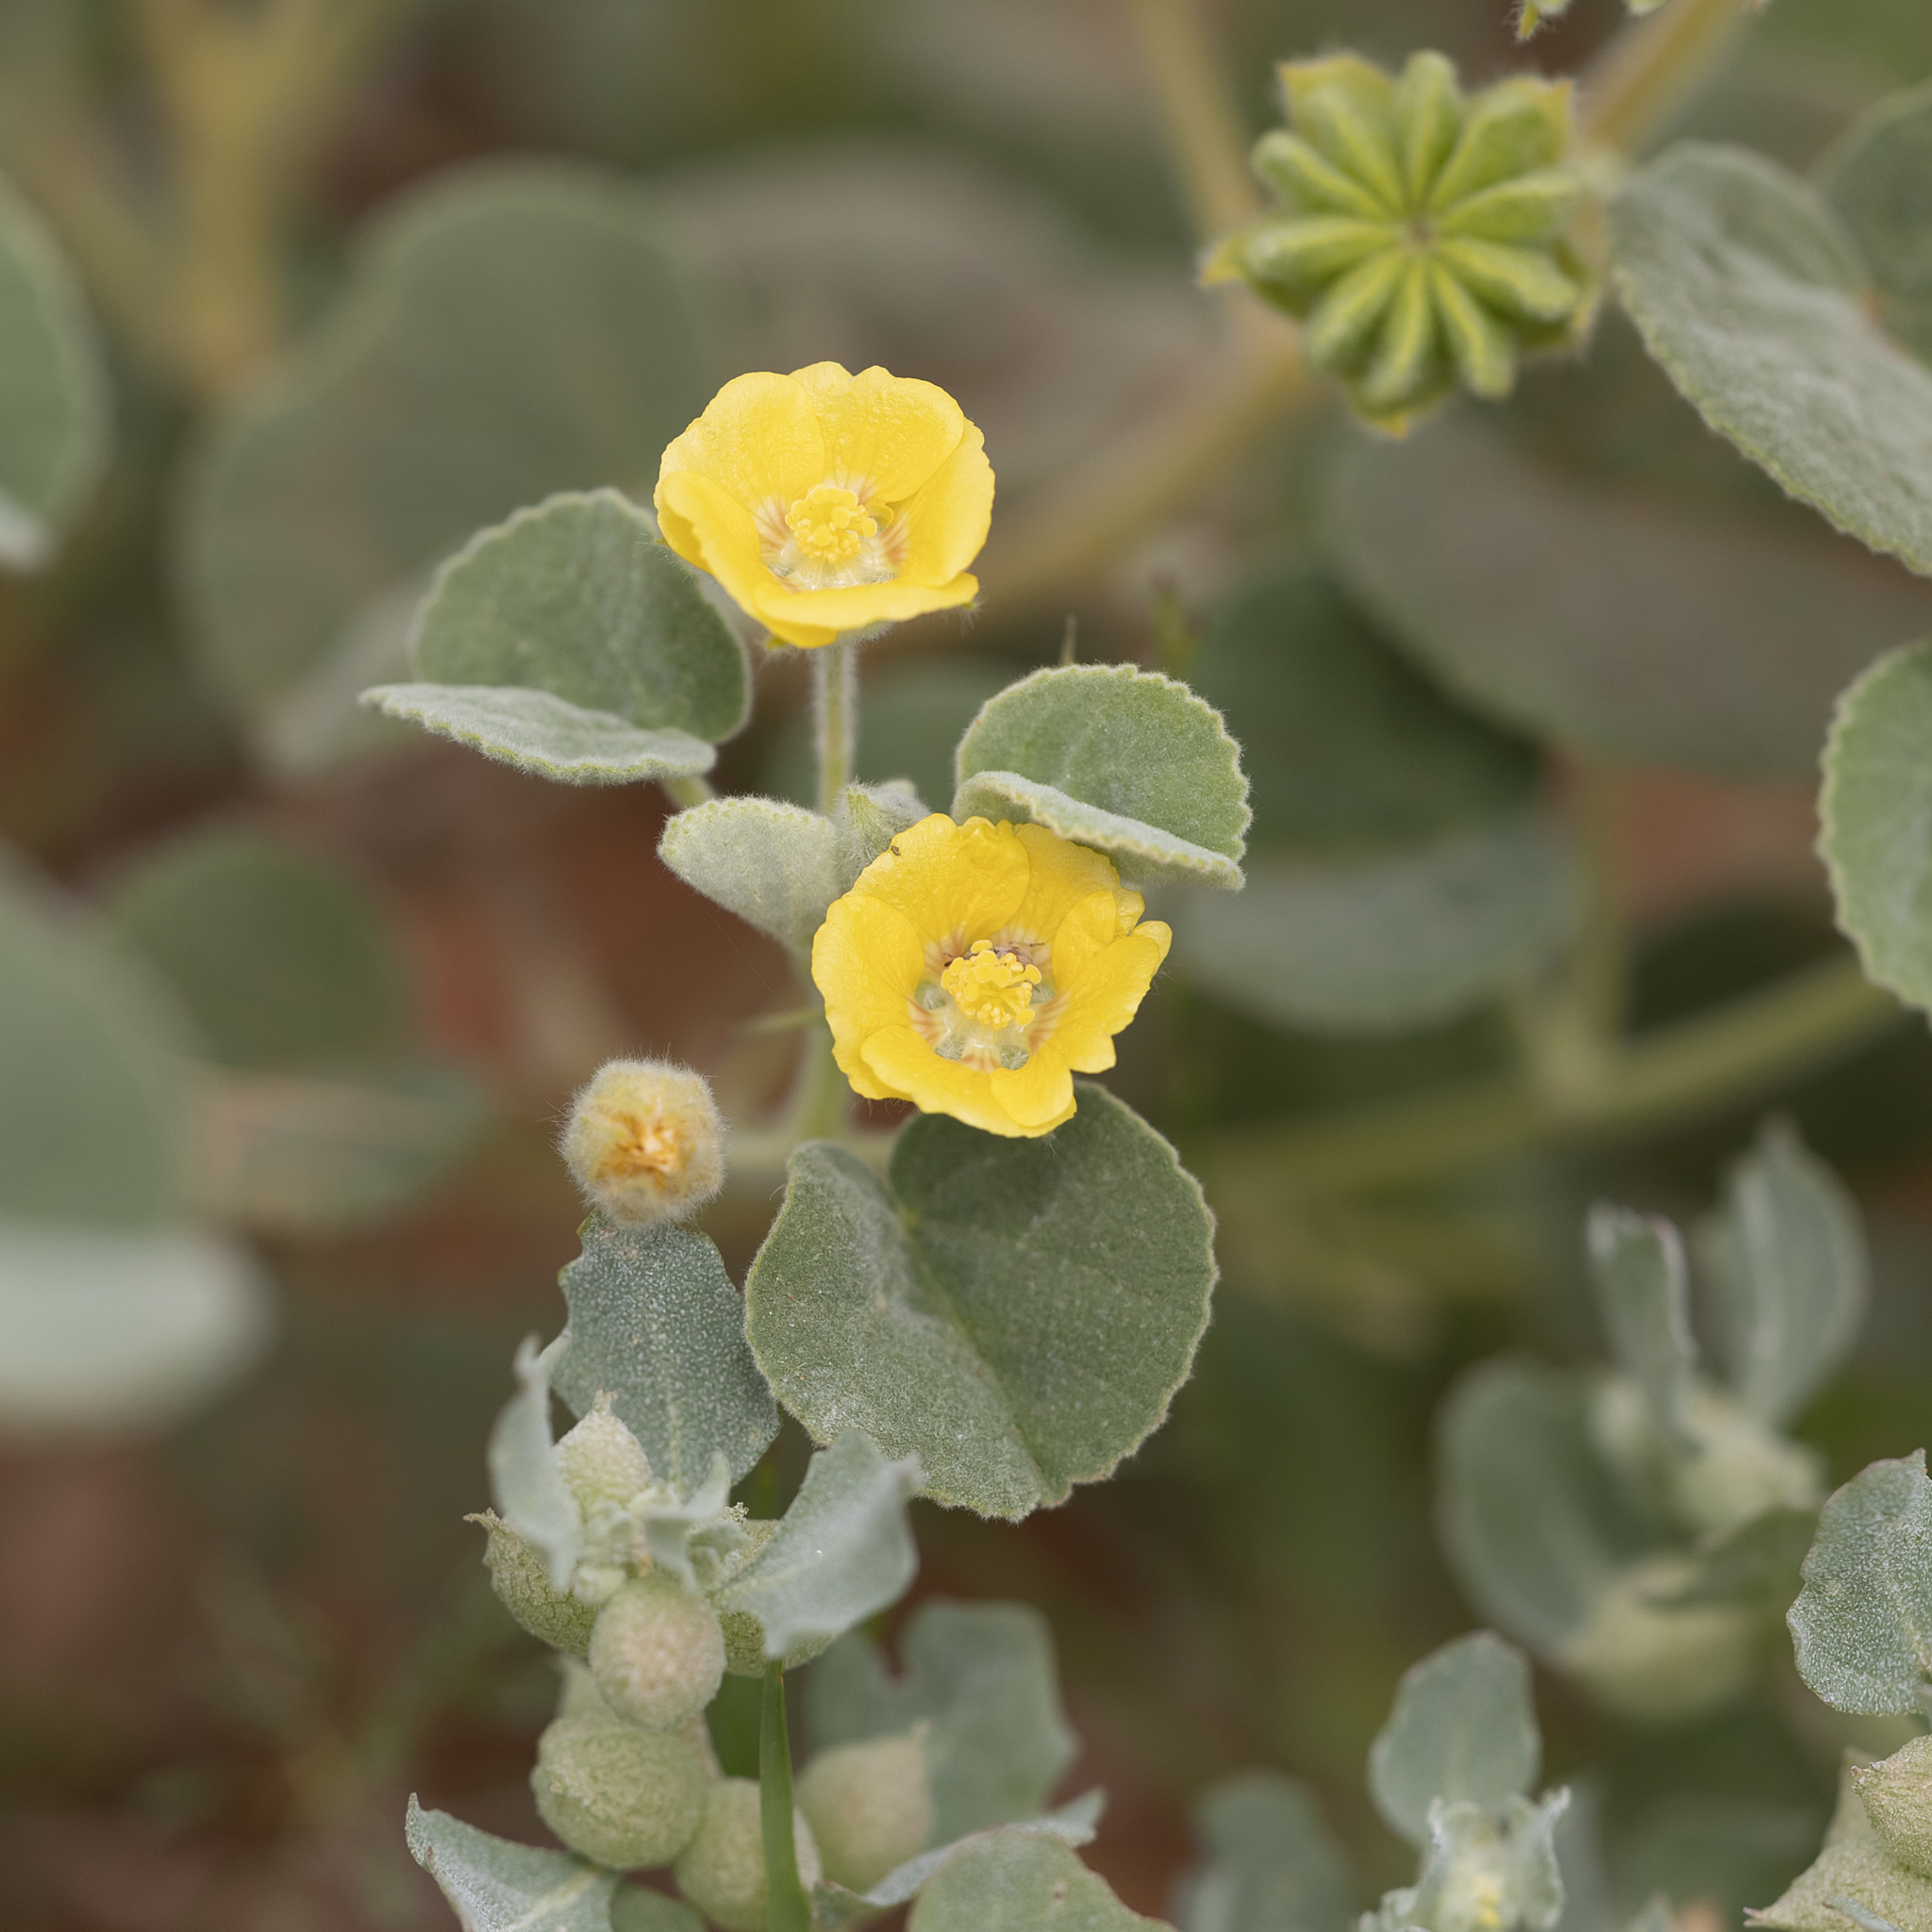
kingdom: Plantae
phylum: Tracheophyta
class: Magnoliopsida
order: Malvales
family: Malvaceae
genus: Abutilon
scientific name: Abutilon halophilum
